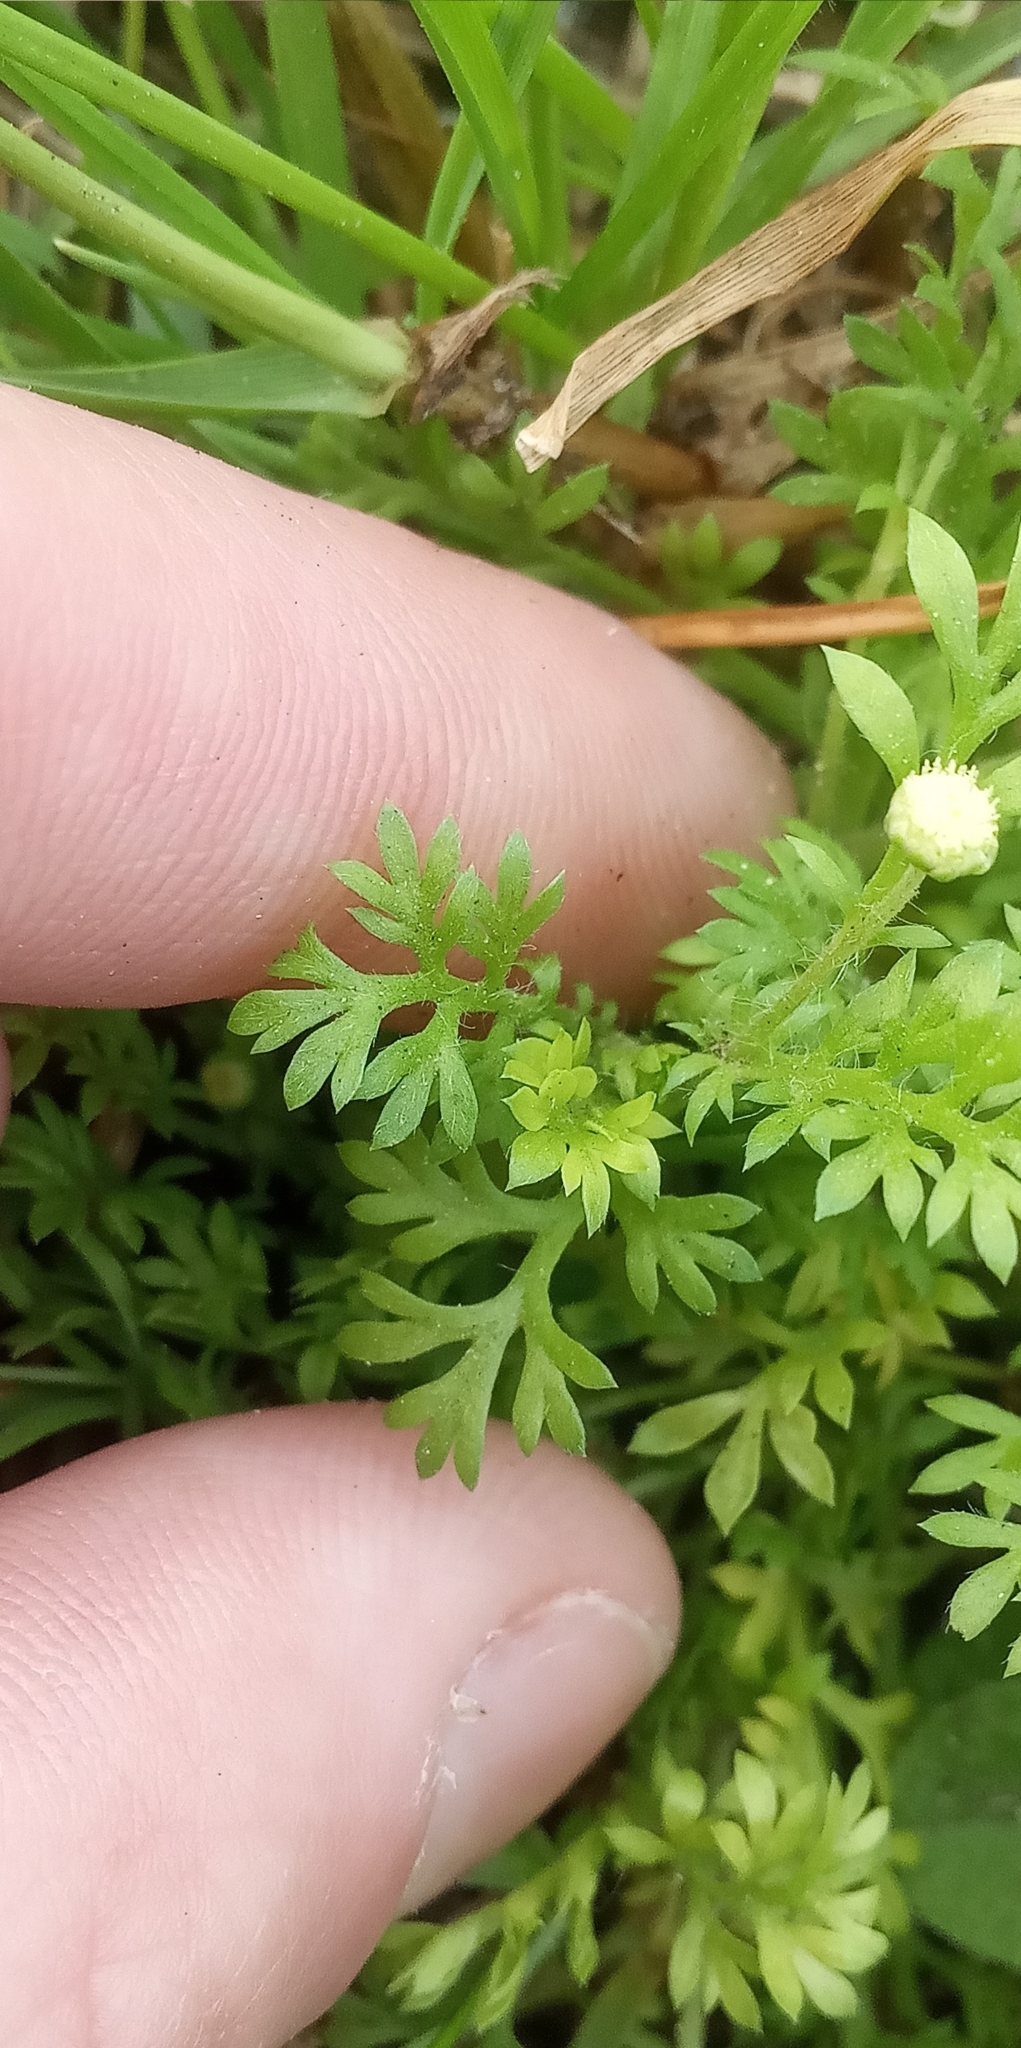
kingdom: Plantae
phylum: Tracheophyta
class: Magnoliopsida
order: Asterales
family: Asteraceae
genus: Cotula
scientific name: Cotula australis
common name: Australian waterbuttons
